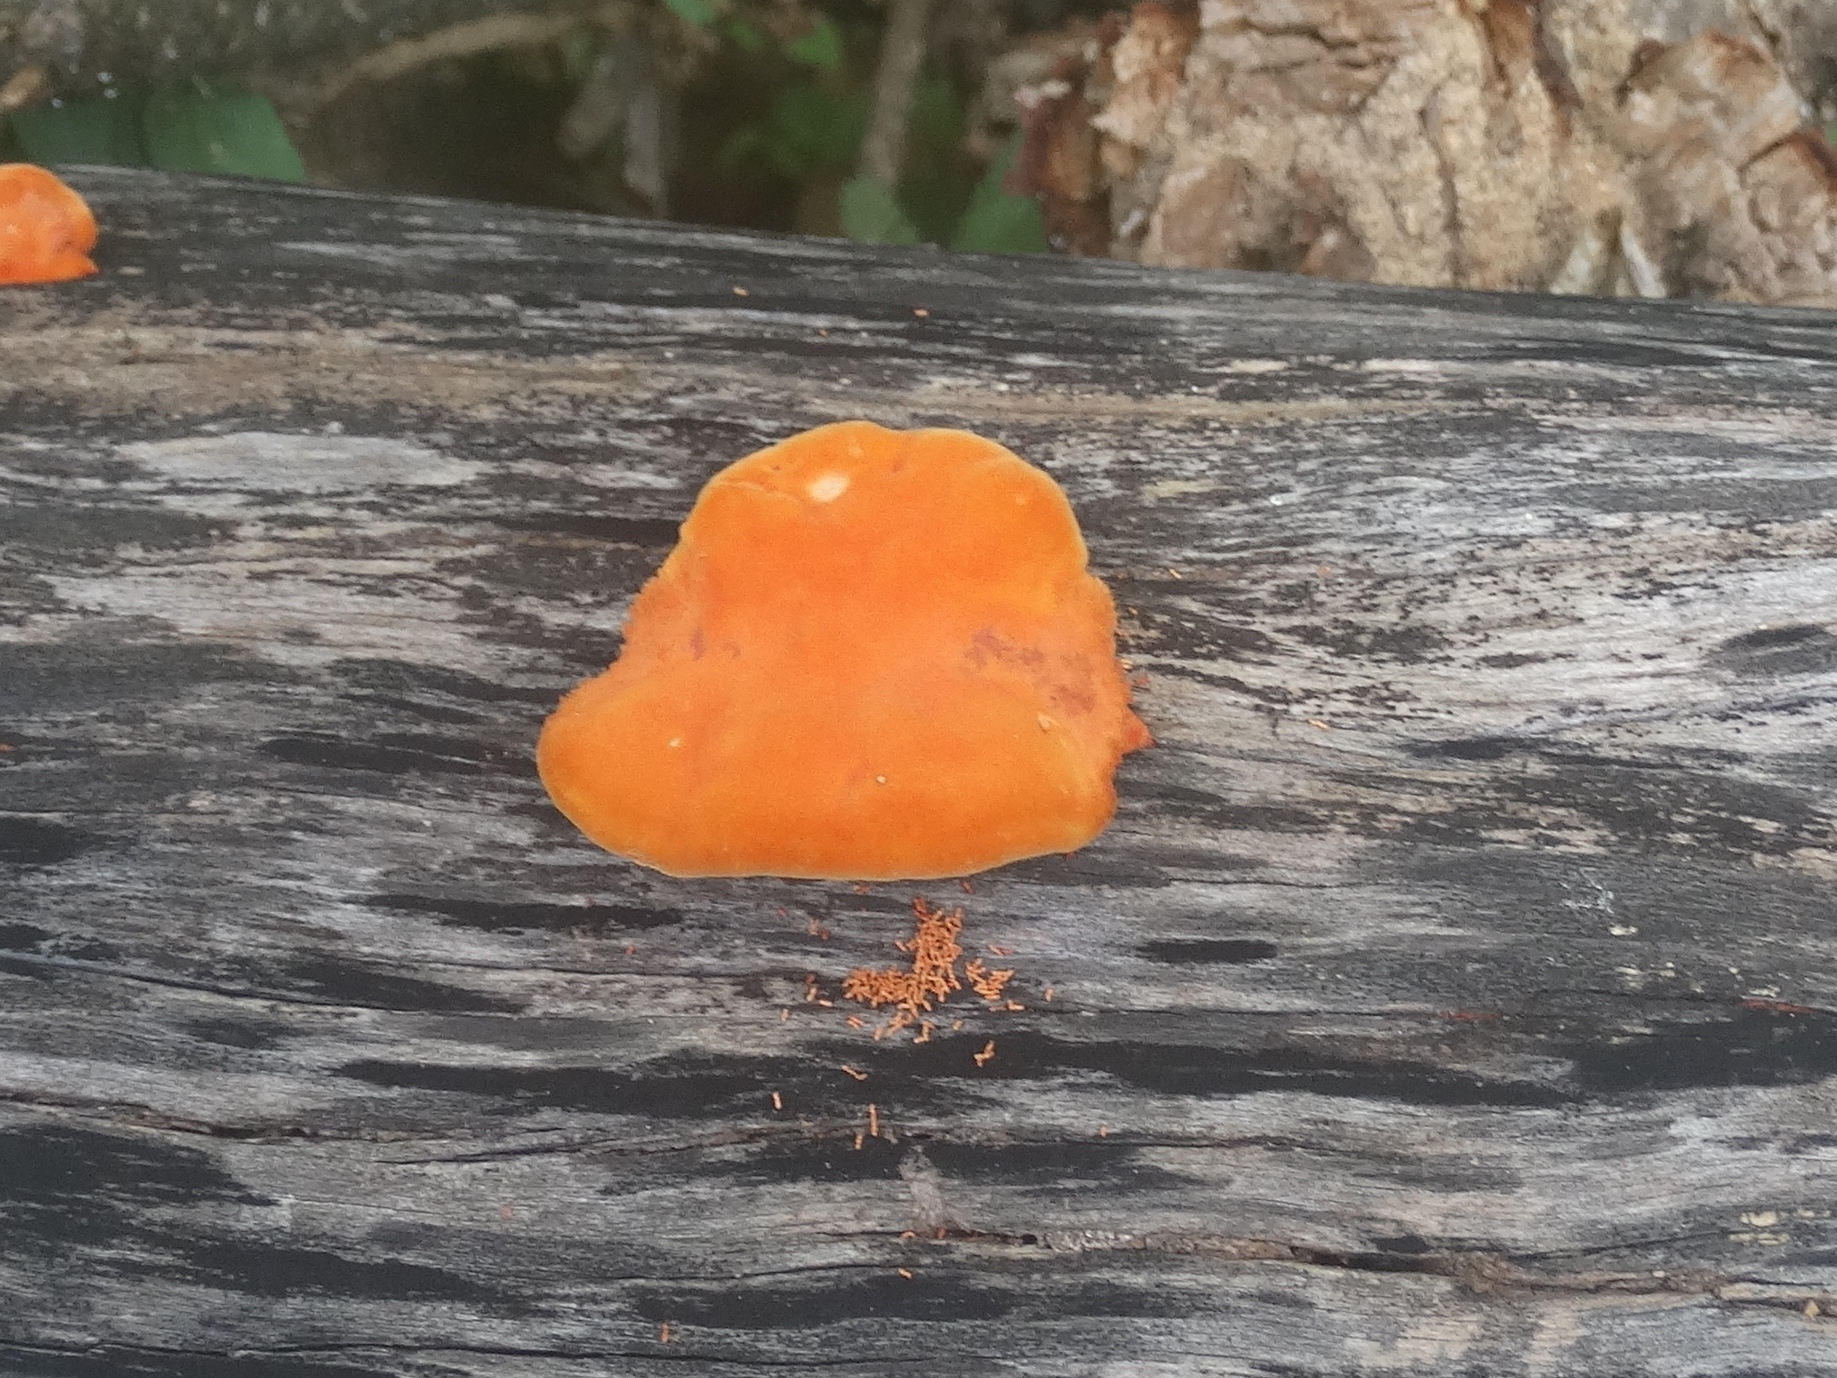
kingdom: Fungi
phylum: Basidiomycota
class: Agaricomycetes
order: Polyporales
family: Polyporaceae
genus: Trametes
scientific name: Trametes
